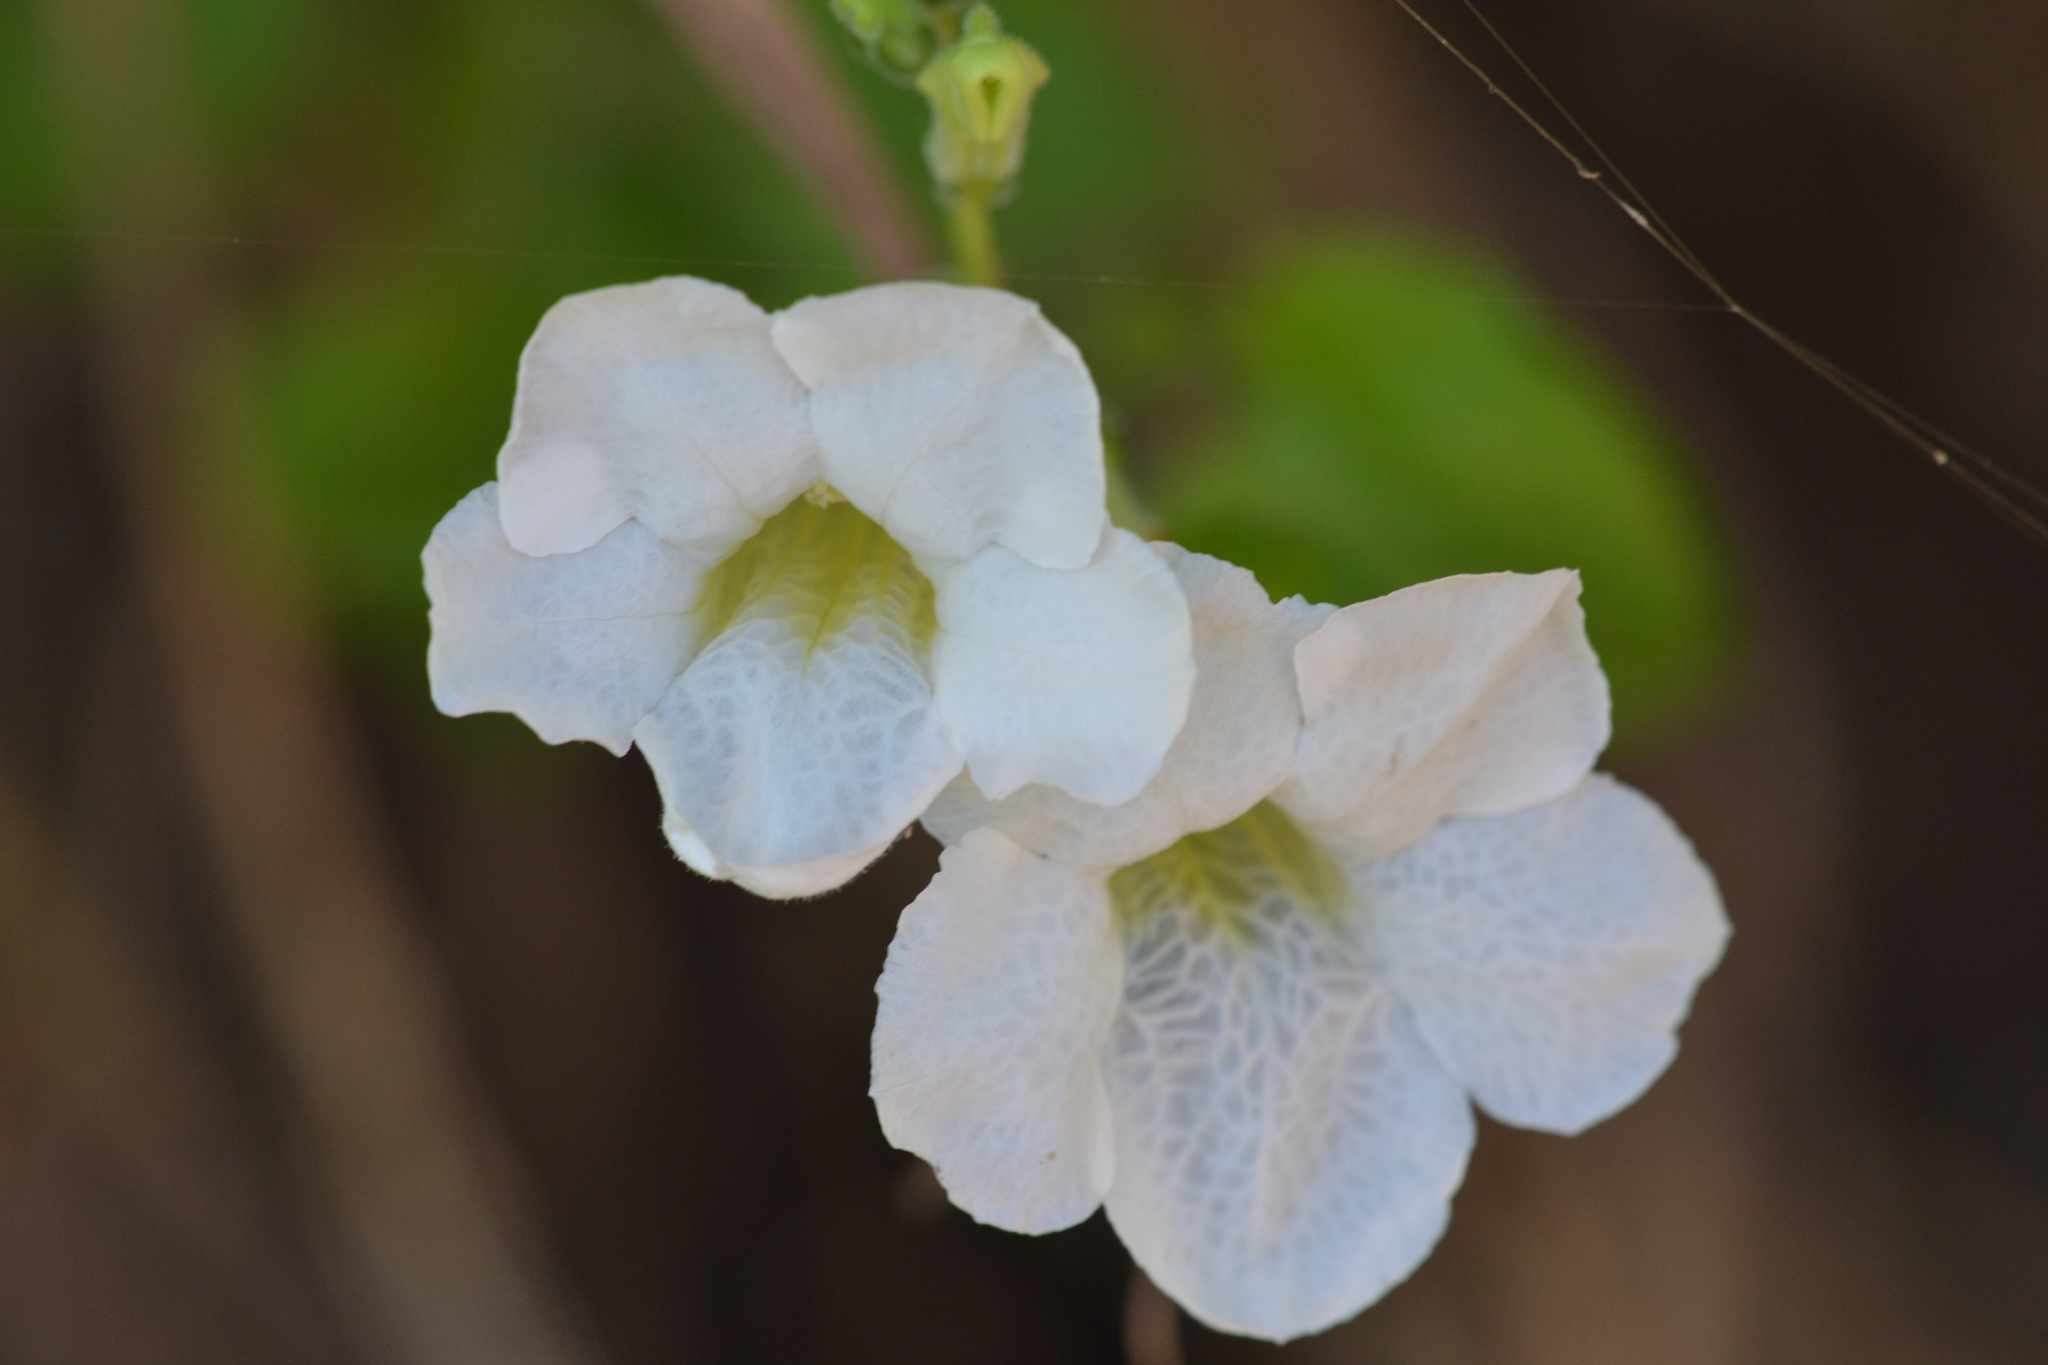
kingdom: Plantae
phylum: Tracheophyta
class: Magnoliopsida
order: Lamiales
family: Acanthaceae
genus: Asystasia
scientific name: Asystasia gangetica
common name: Chinese violet
